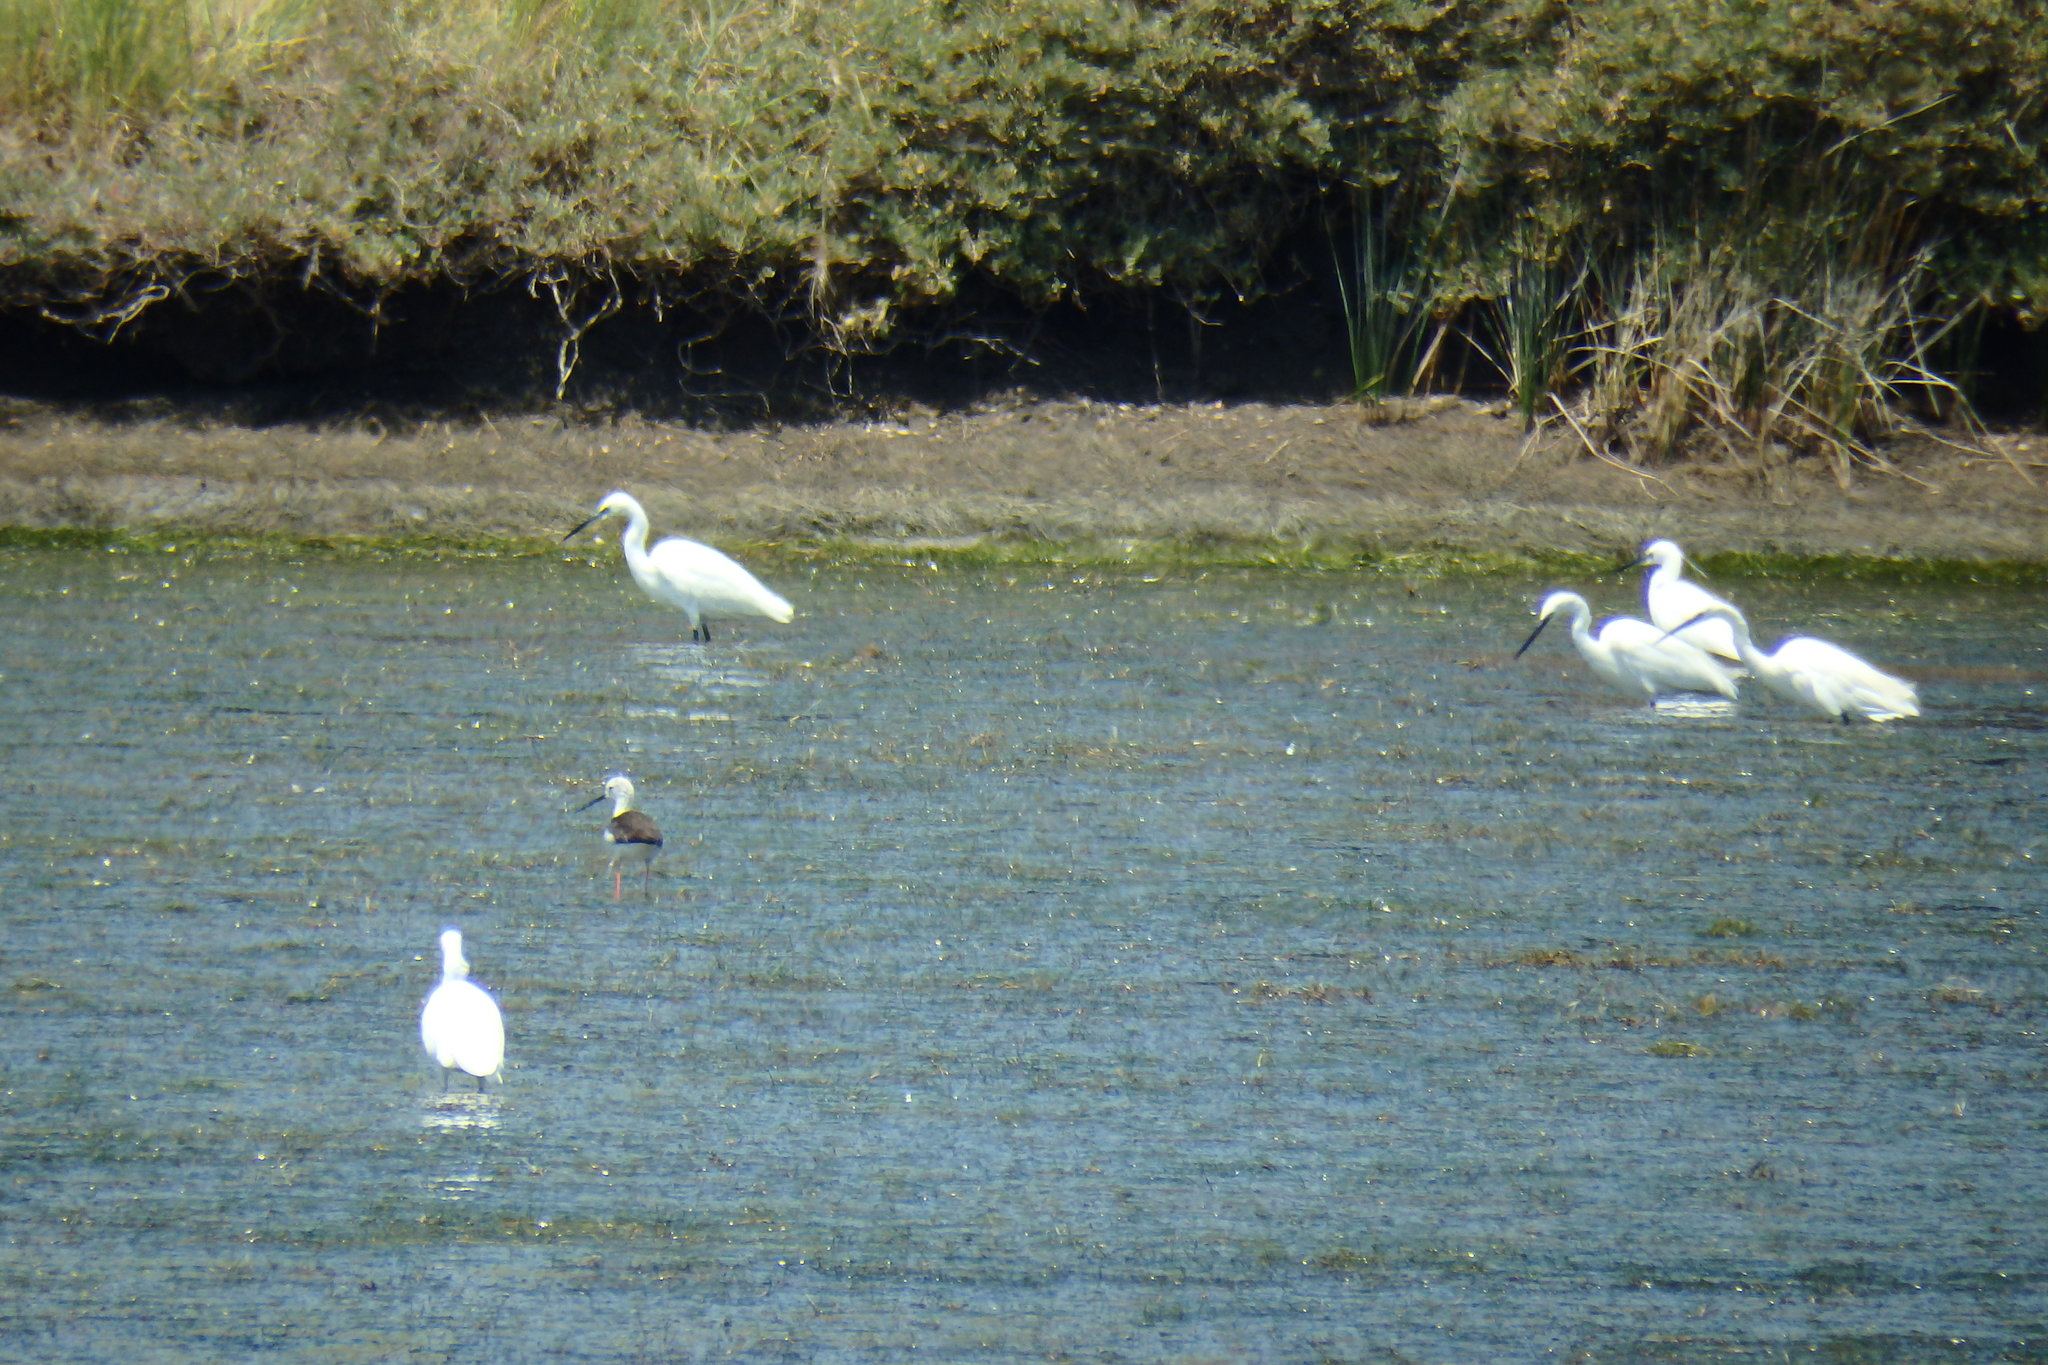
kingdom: Animalia
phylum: Chordata
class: Aves
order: Pelecaniformes
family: Ardeidae
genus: Egretta
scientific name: Egretta garzetta
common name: Little egret
